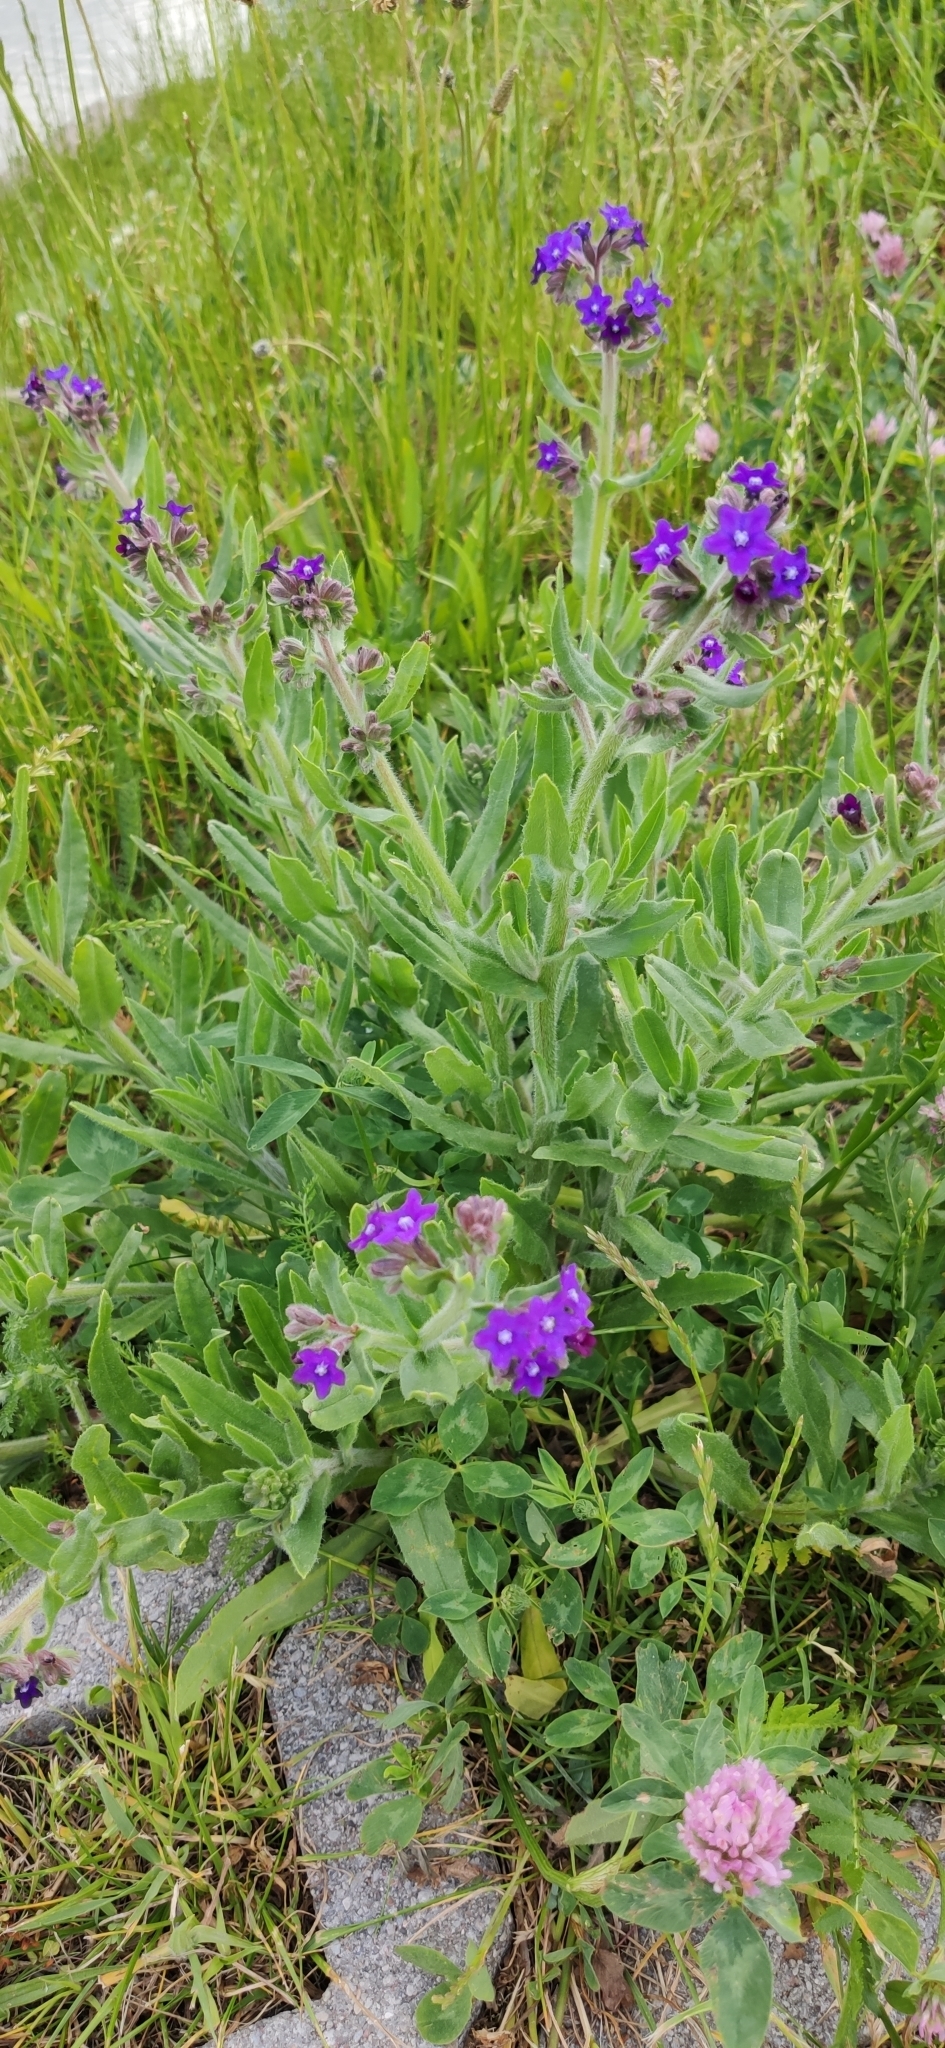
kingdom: Plantae
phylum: Tracheophyta
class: Magnoliopsida
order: Boraginales
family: Boraginaceae
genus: Anchusa
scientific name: Anchusa officinalis
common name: Alkanet
